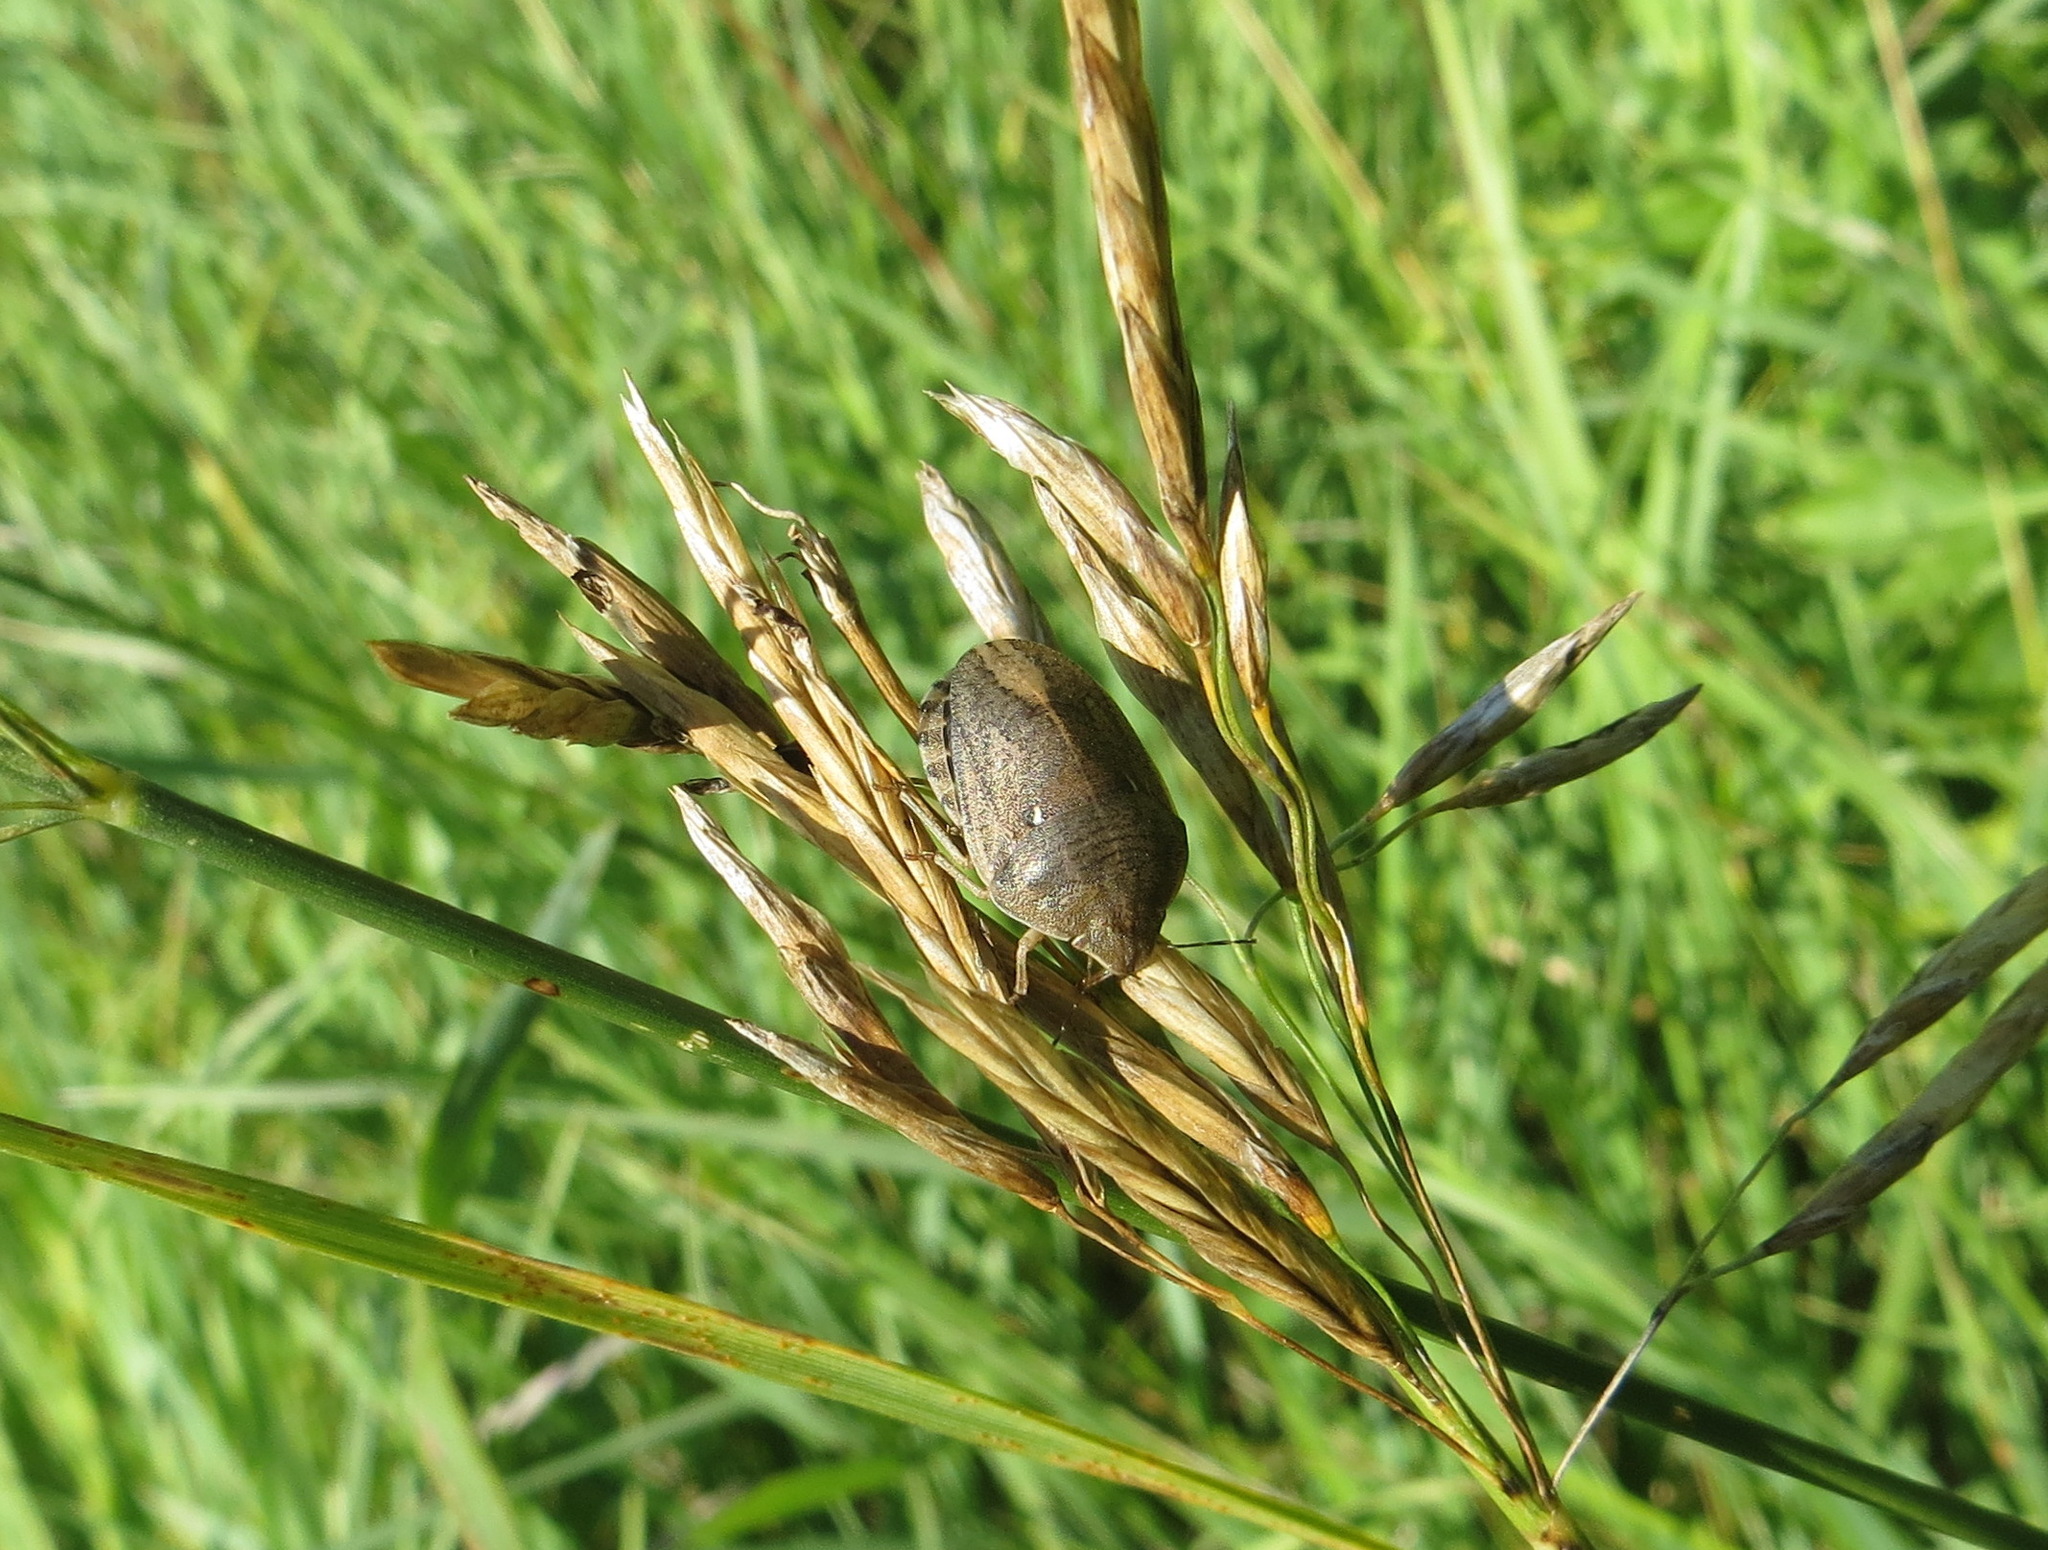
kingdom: Animalia
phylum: Arthropoda
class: Insecta
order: Hemiptera
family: Scutelleridae
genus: Eurygaster
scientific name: Eurygaster integriceps
